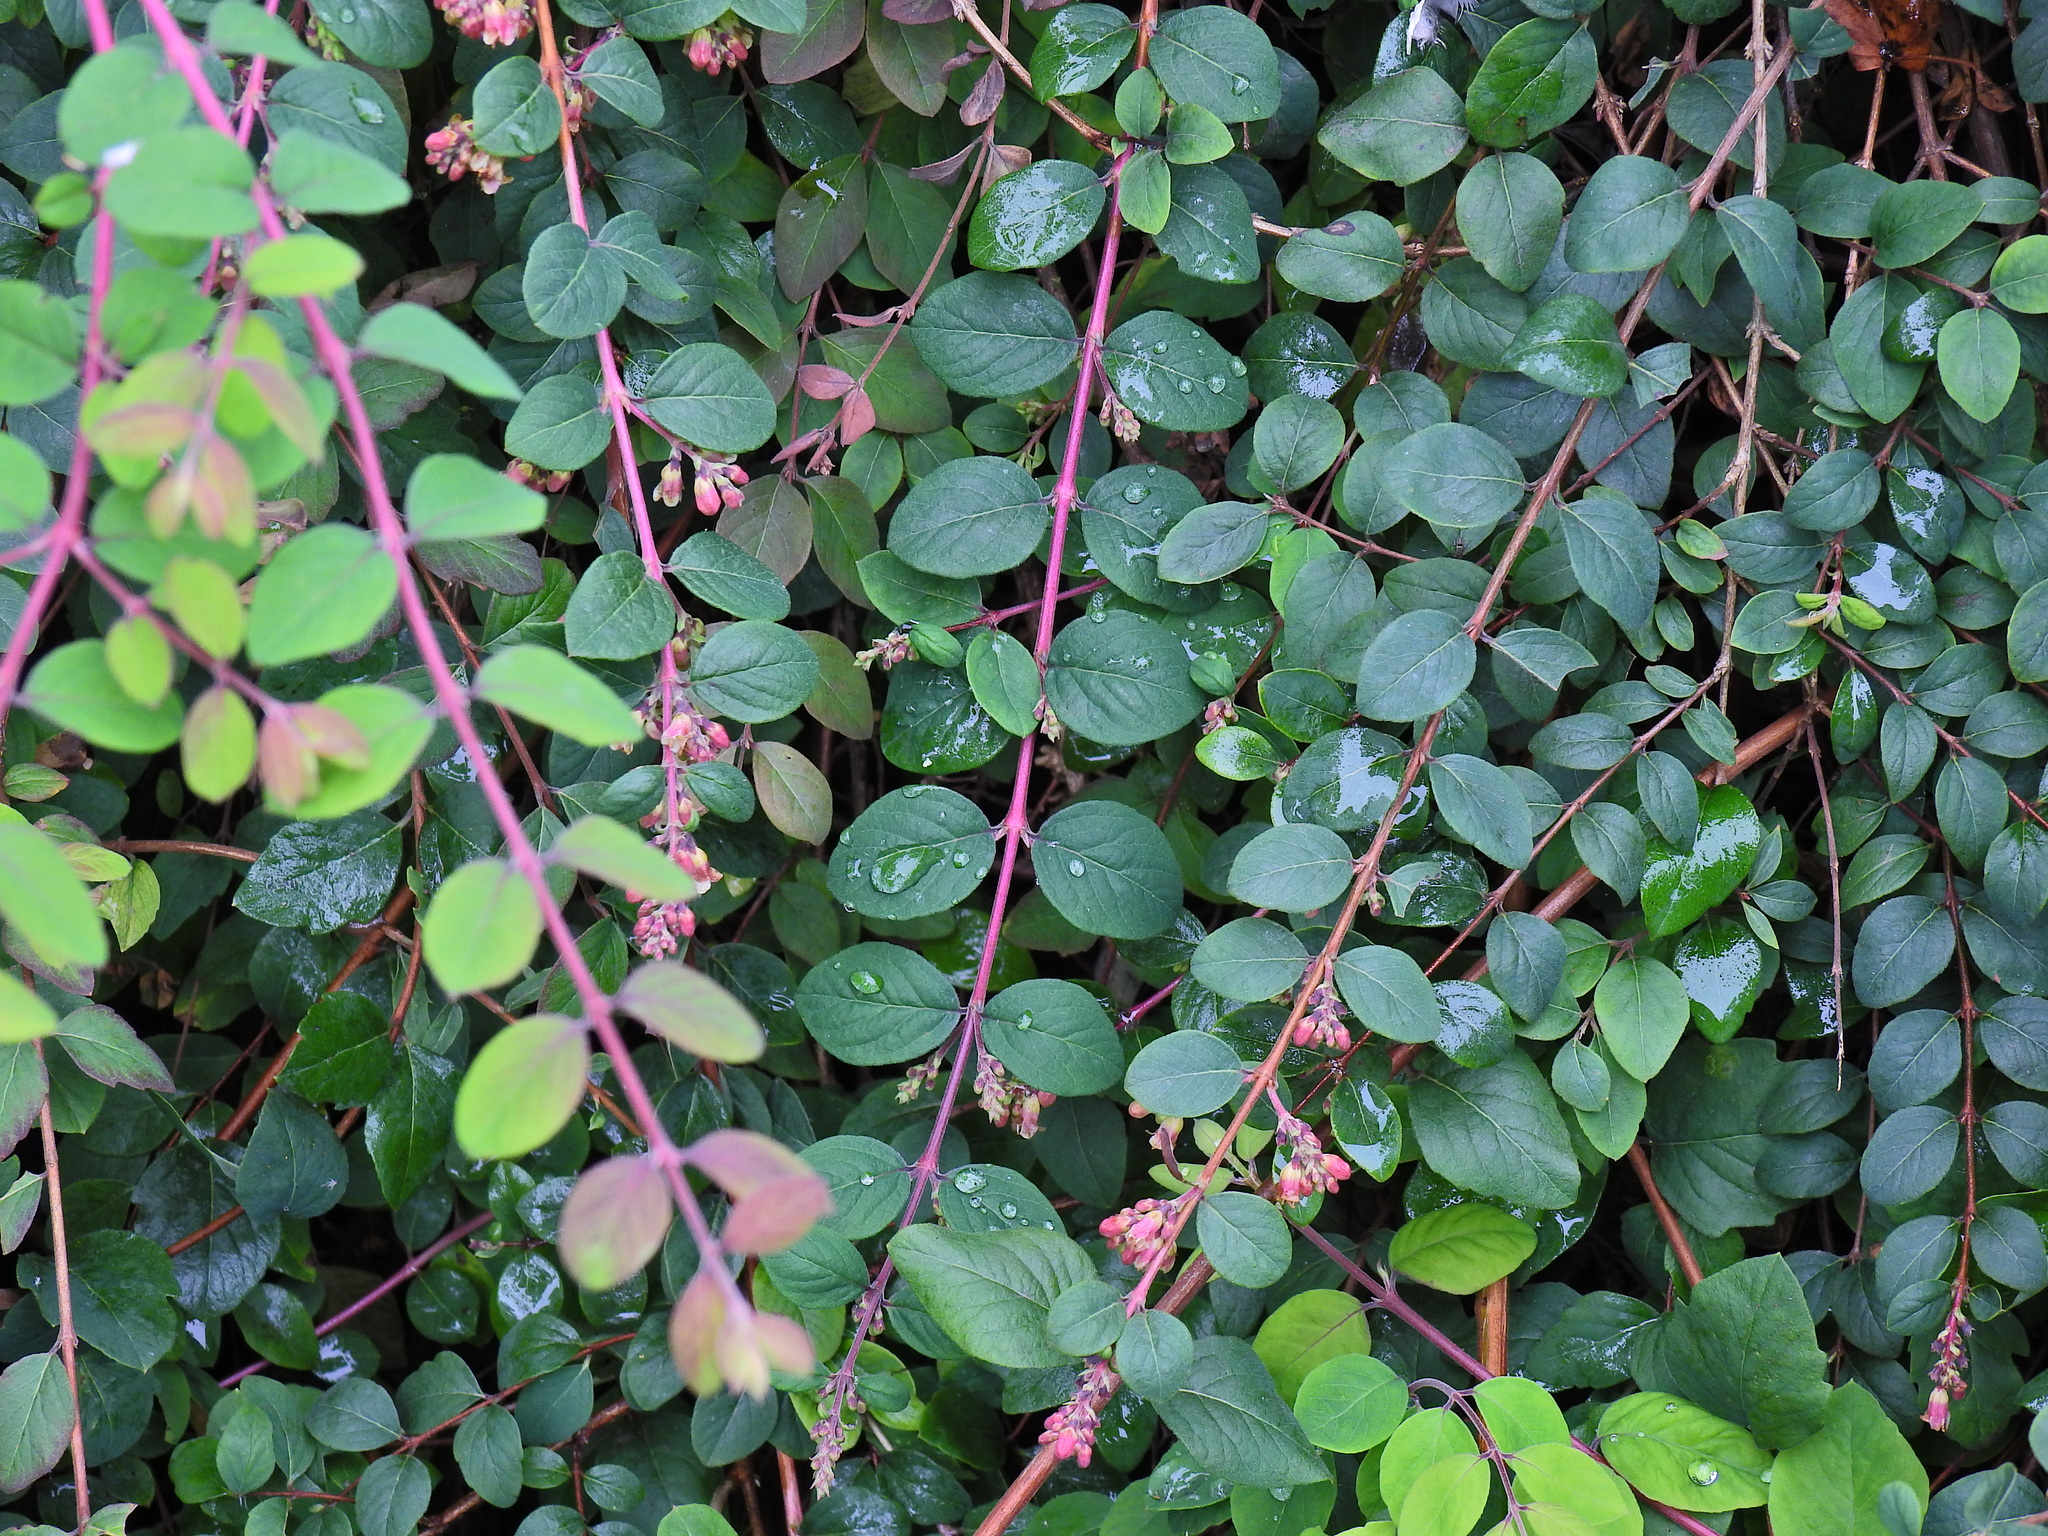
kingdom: Plantae
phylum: Tracheophyta
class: Magnoliopsida
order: Dipsacales
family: Caprifoliaceae
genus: Symphoricarpos
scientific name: Symphoricarpos orbiculatus
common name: Coralberry
